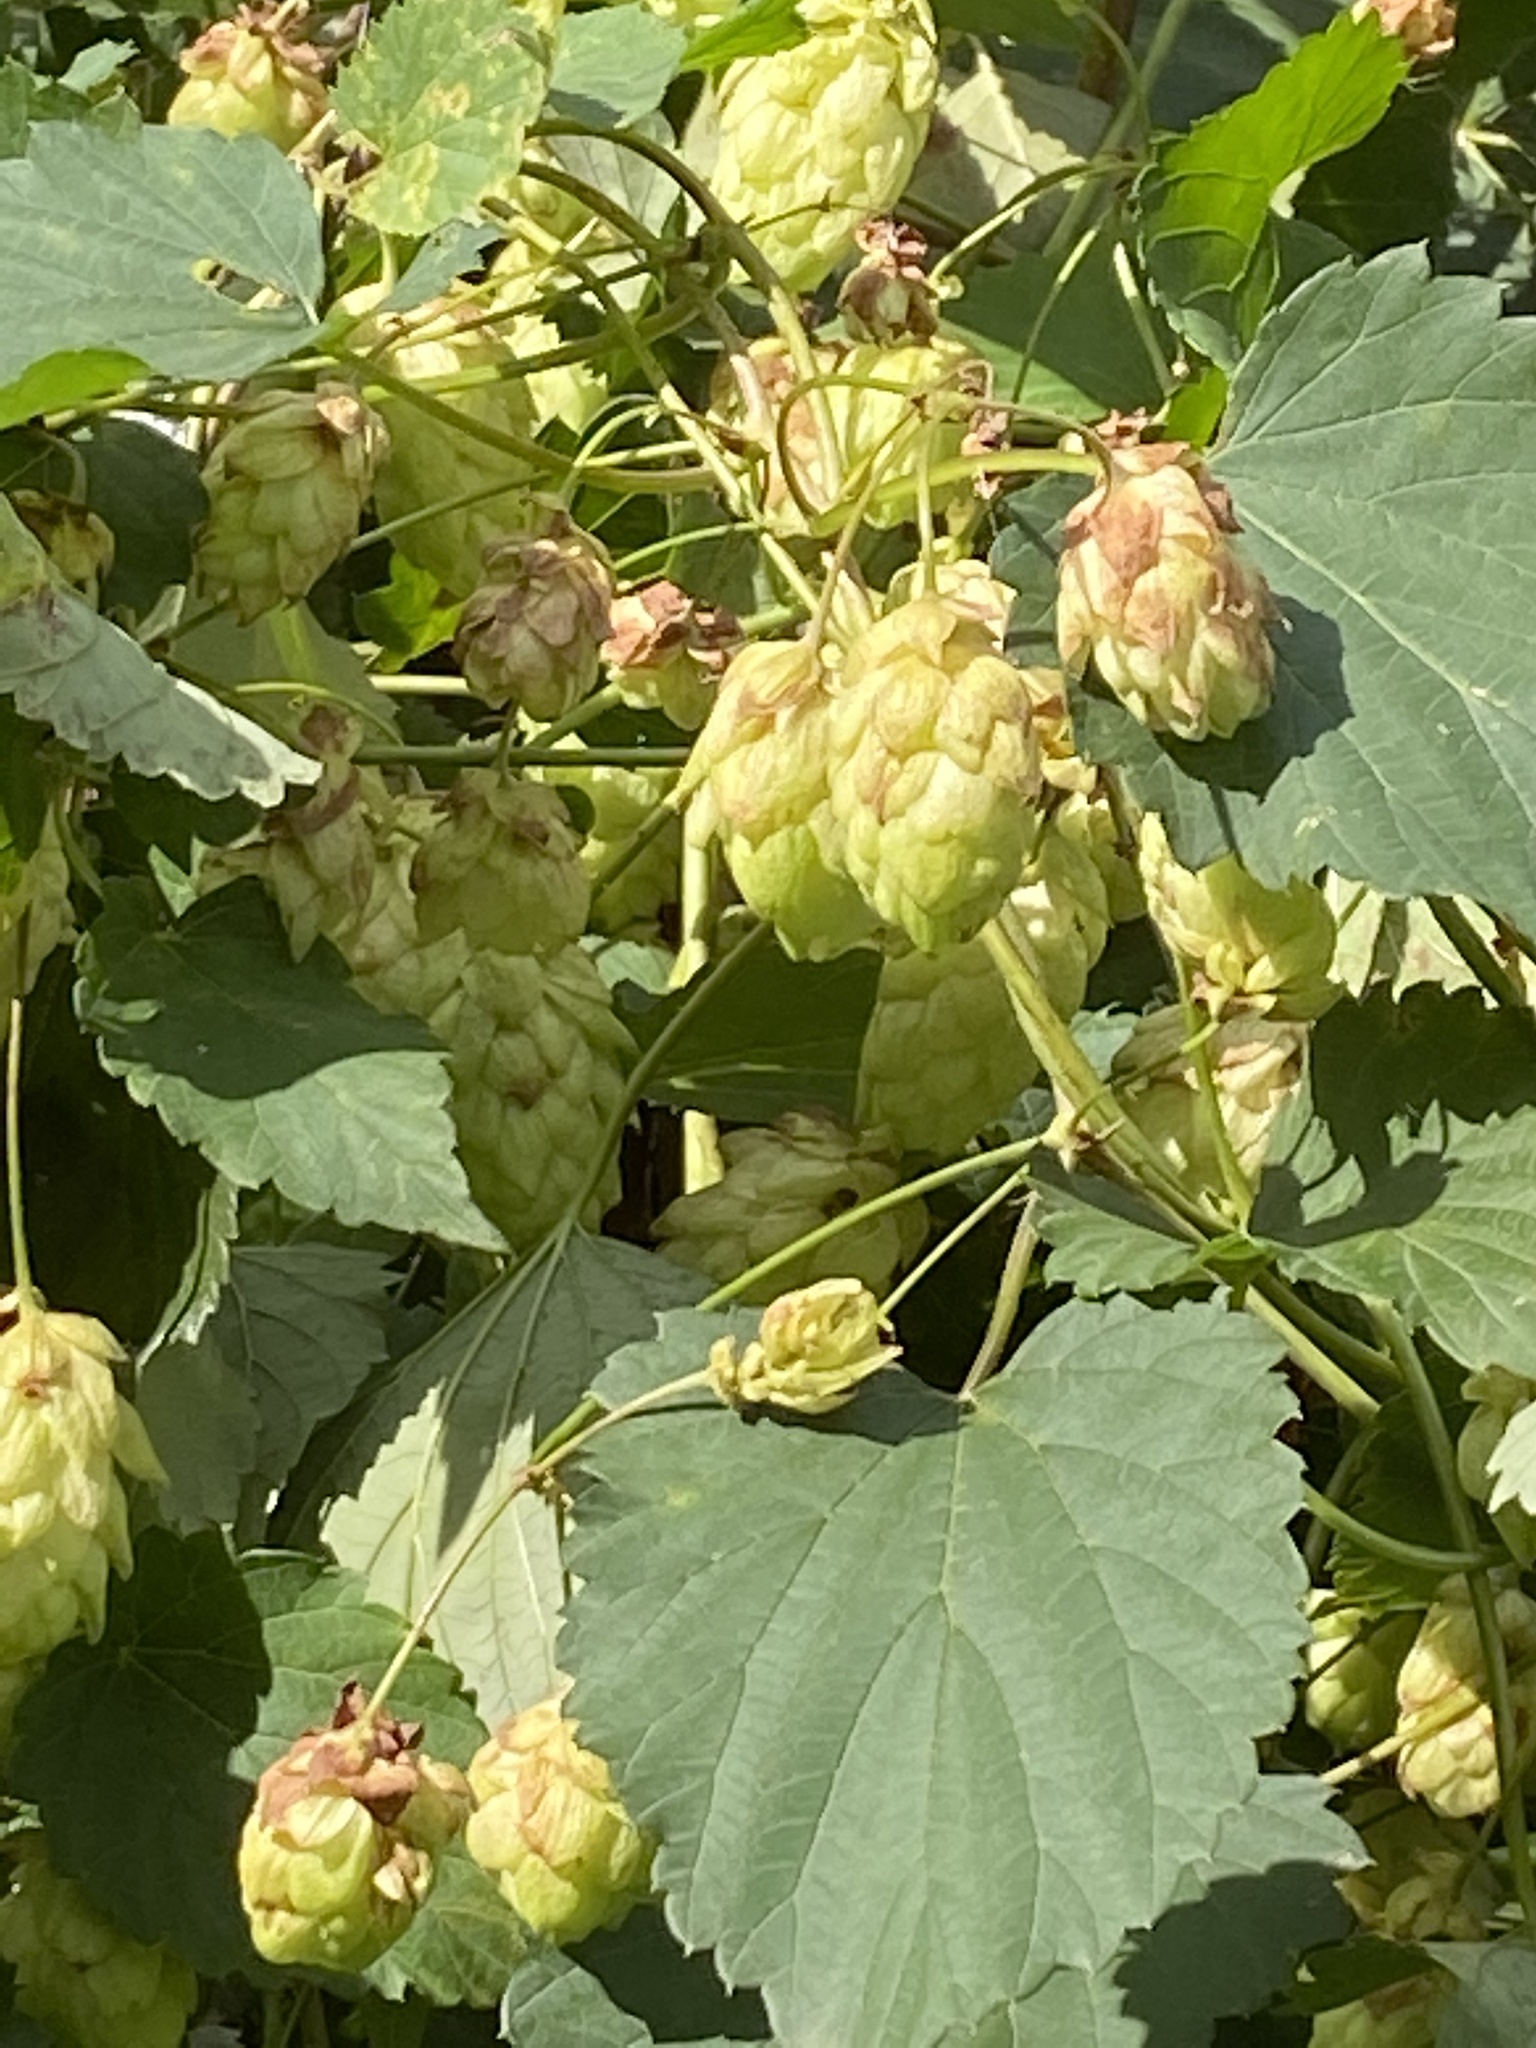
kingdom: Plantae
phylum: Tracheophyta
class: Magnoliopsida
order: Rosales
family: Cannabaceae
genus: Humulus
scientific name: Humulus lupulus
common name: Hop
